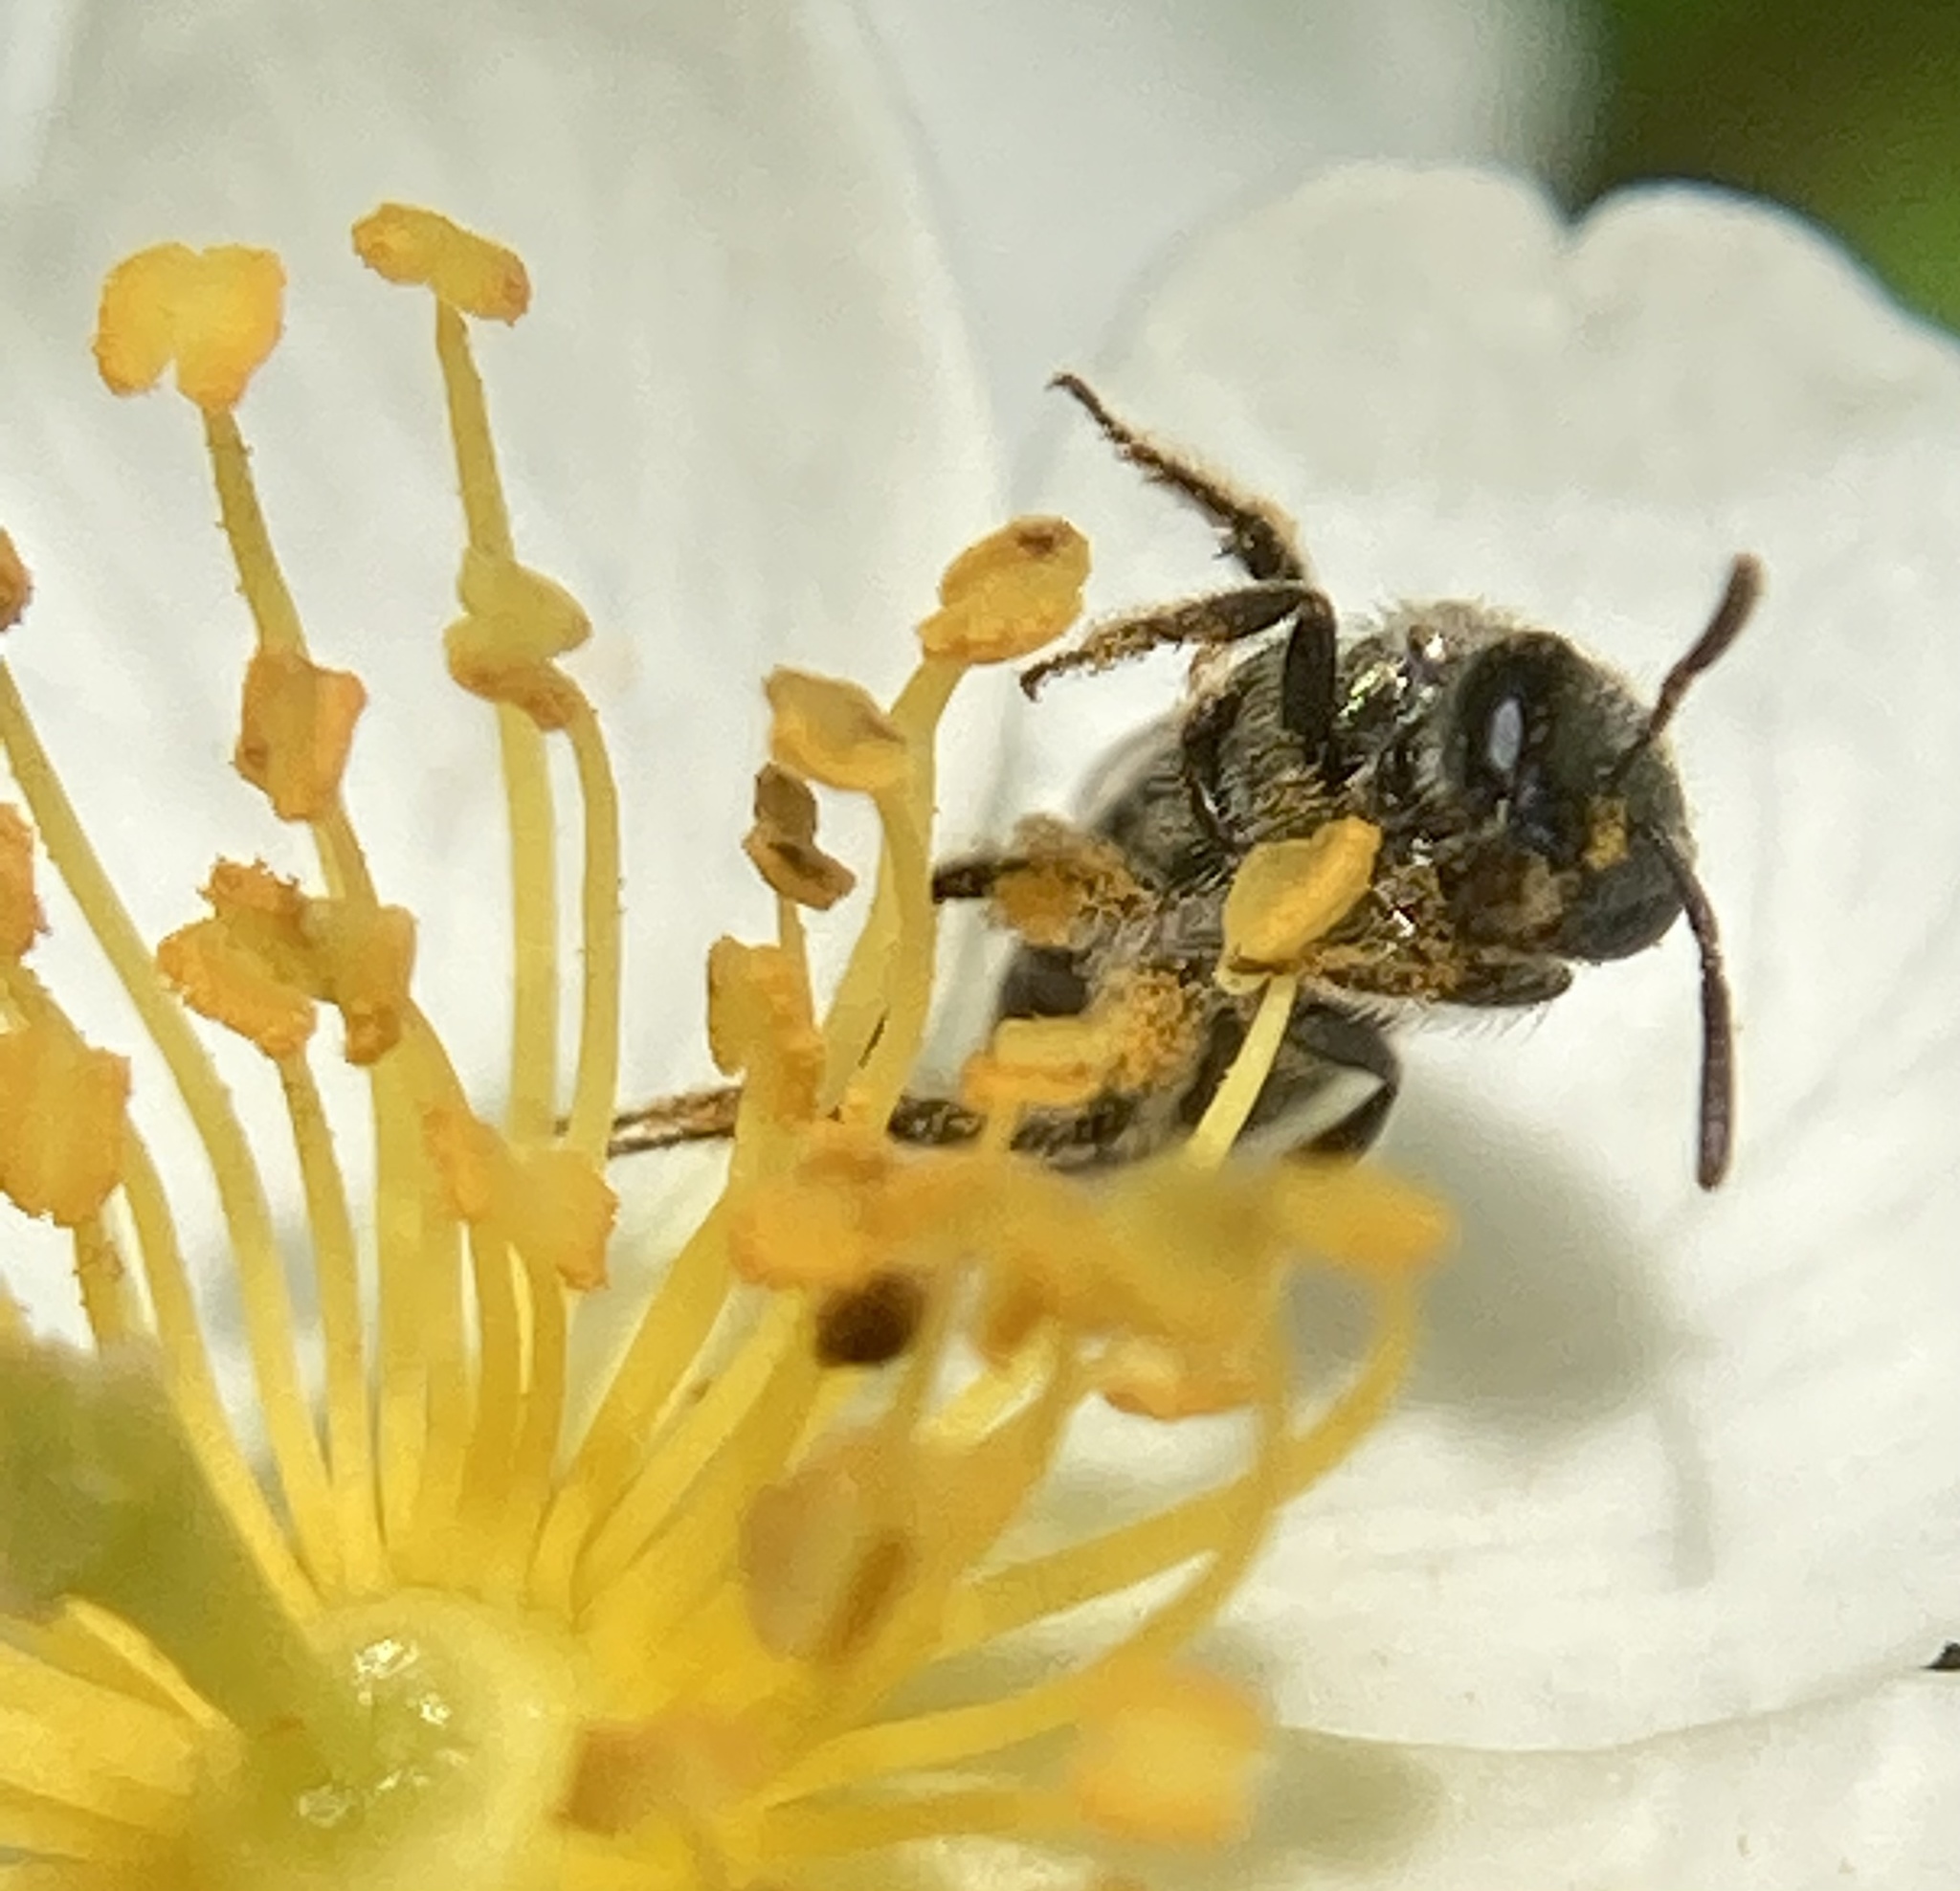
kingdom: Animalia
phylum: Arthropoda
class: Insecta
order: Hymenoptera
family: Halictidae
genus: Dialictus
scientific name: Dialictus
